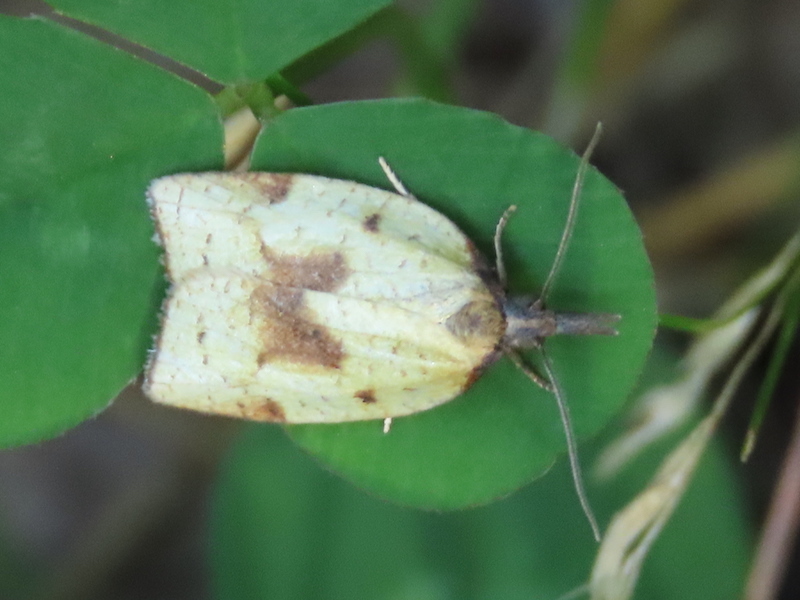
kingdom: Animalia
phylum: Arthropoda
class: Insecta
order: Lepidoptera
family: Tortricidae
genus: Sparganothis
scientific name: Sparganothis xanthoides
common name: Mosaic sparganothis moth
